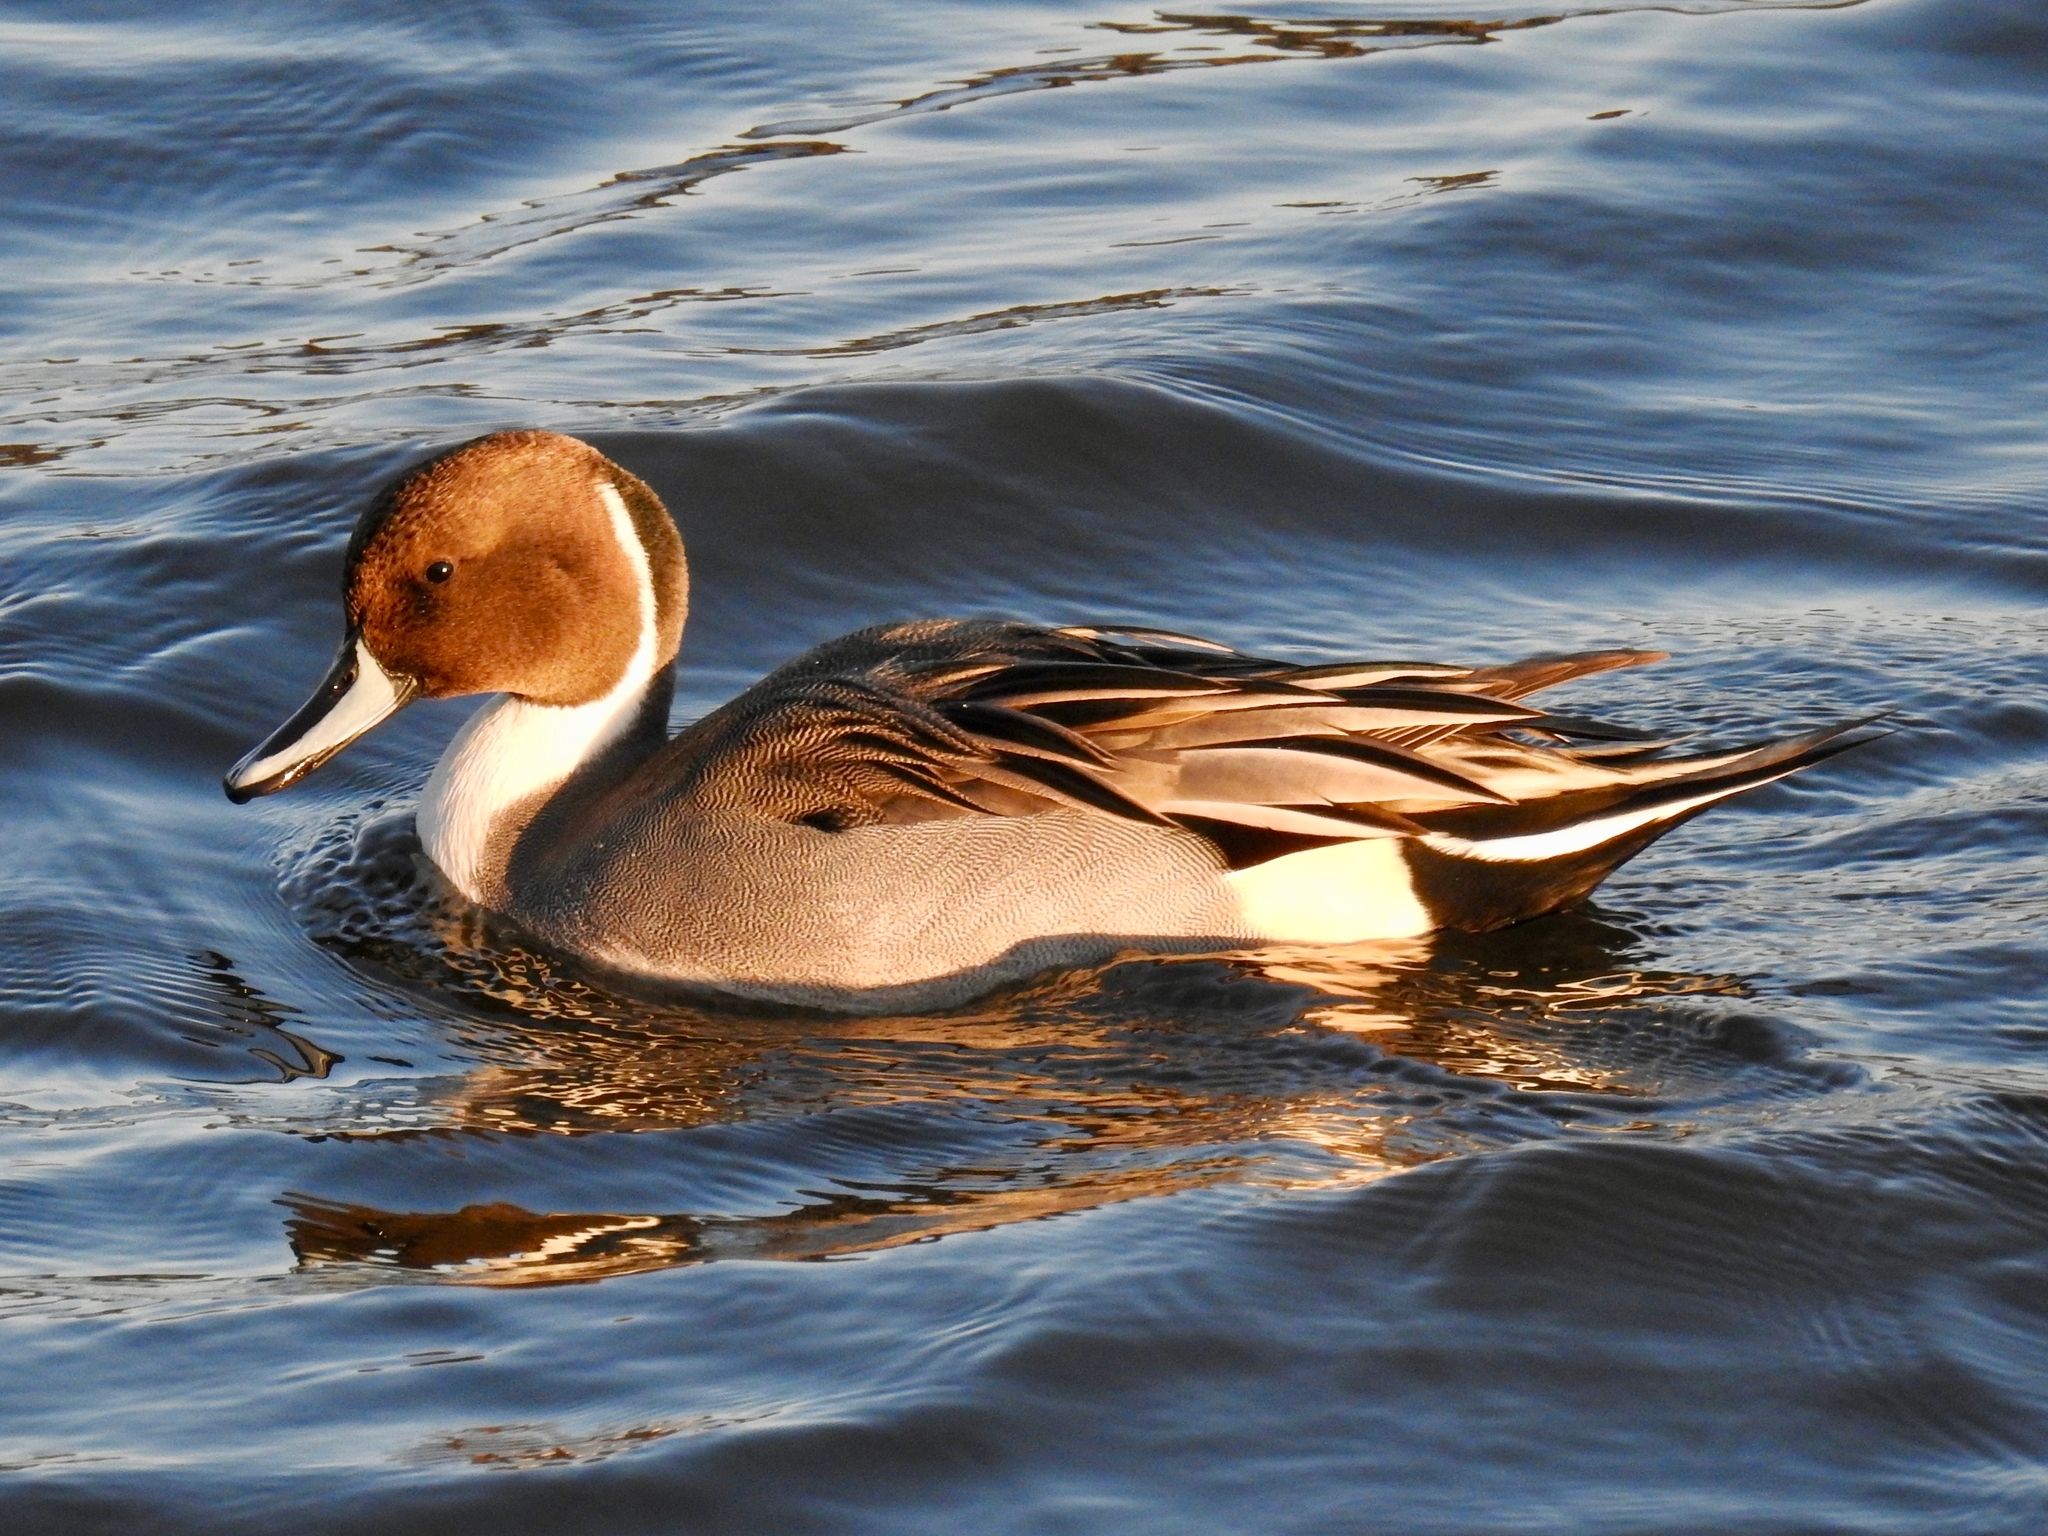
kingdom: Animalia
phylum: Chordata
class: Aves
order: Anseriformes
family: Anatidae
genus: Anas
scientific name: Anas acuta
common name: Northern pintail
